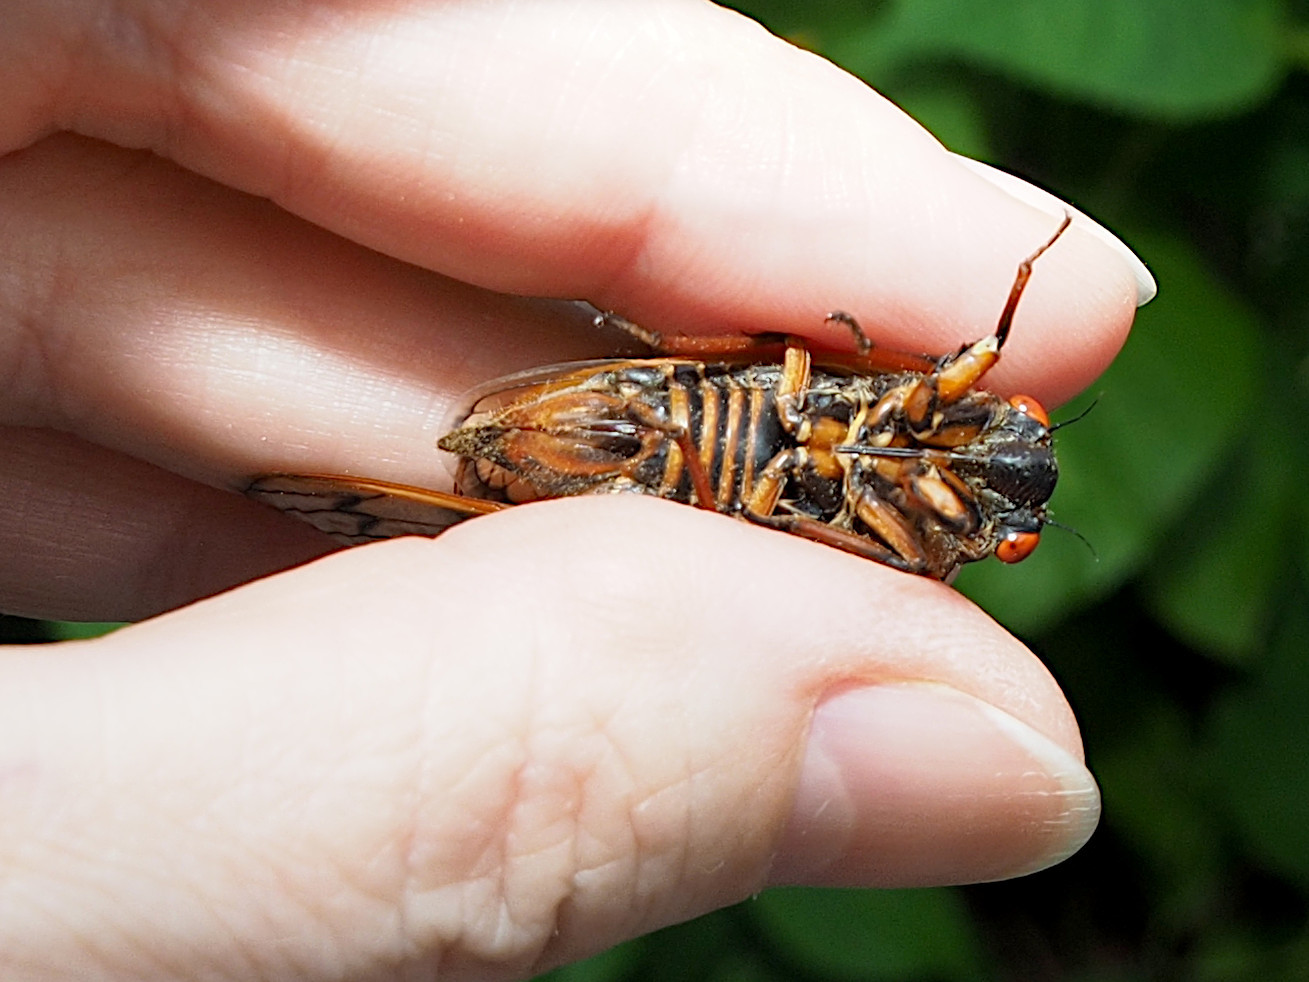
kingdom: Animalia
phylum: Arthropoda
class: Insecta
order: Hemiptera
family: Cicadidae
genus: Magicicada
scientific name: Magicicada septendecim
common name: Periodical cicada
